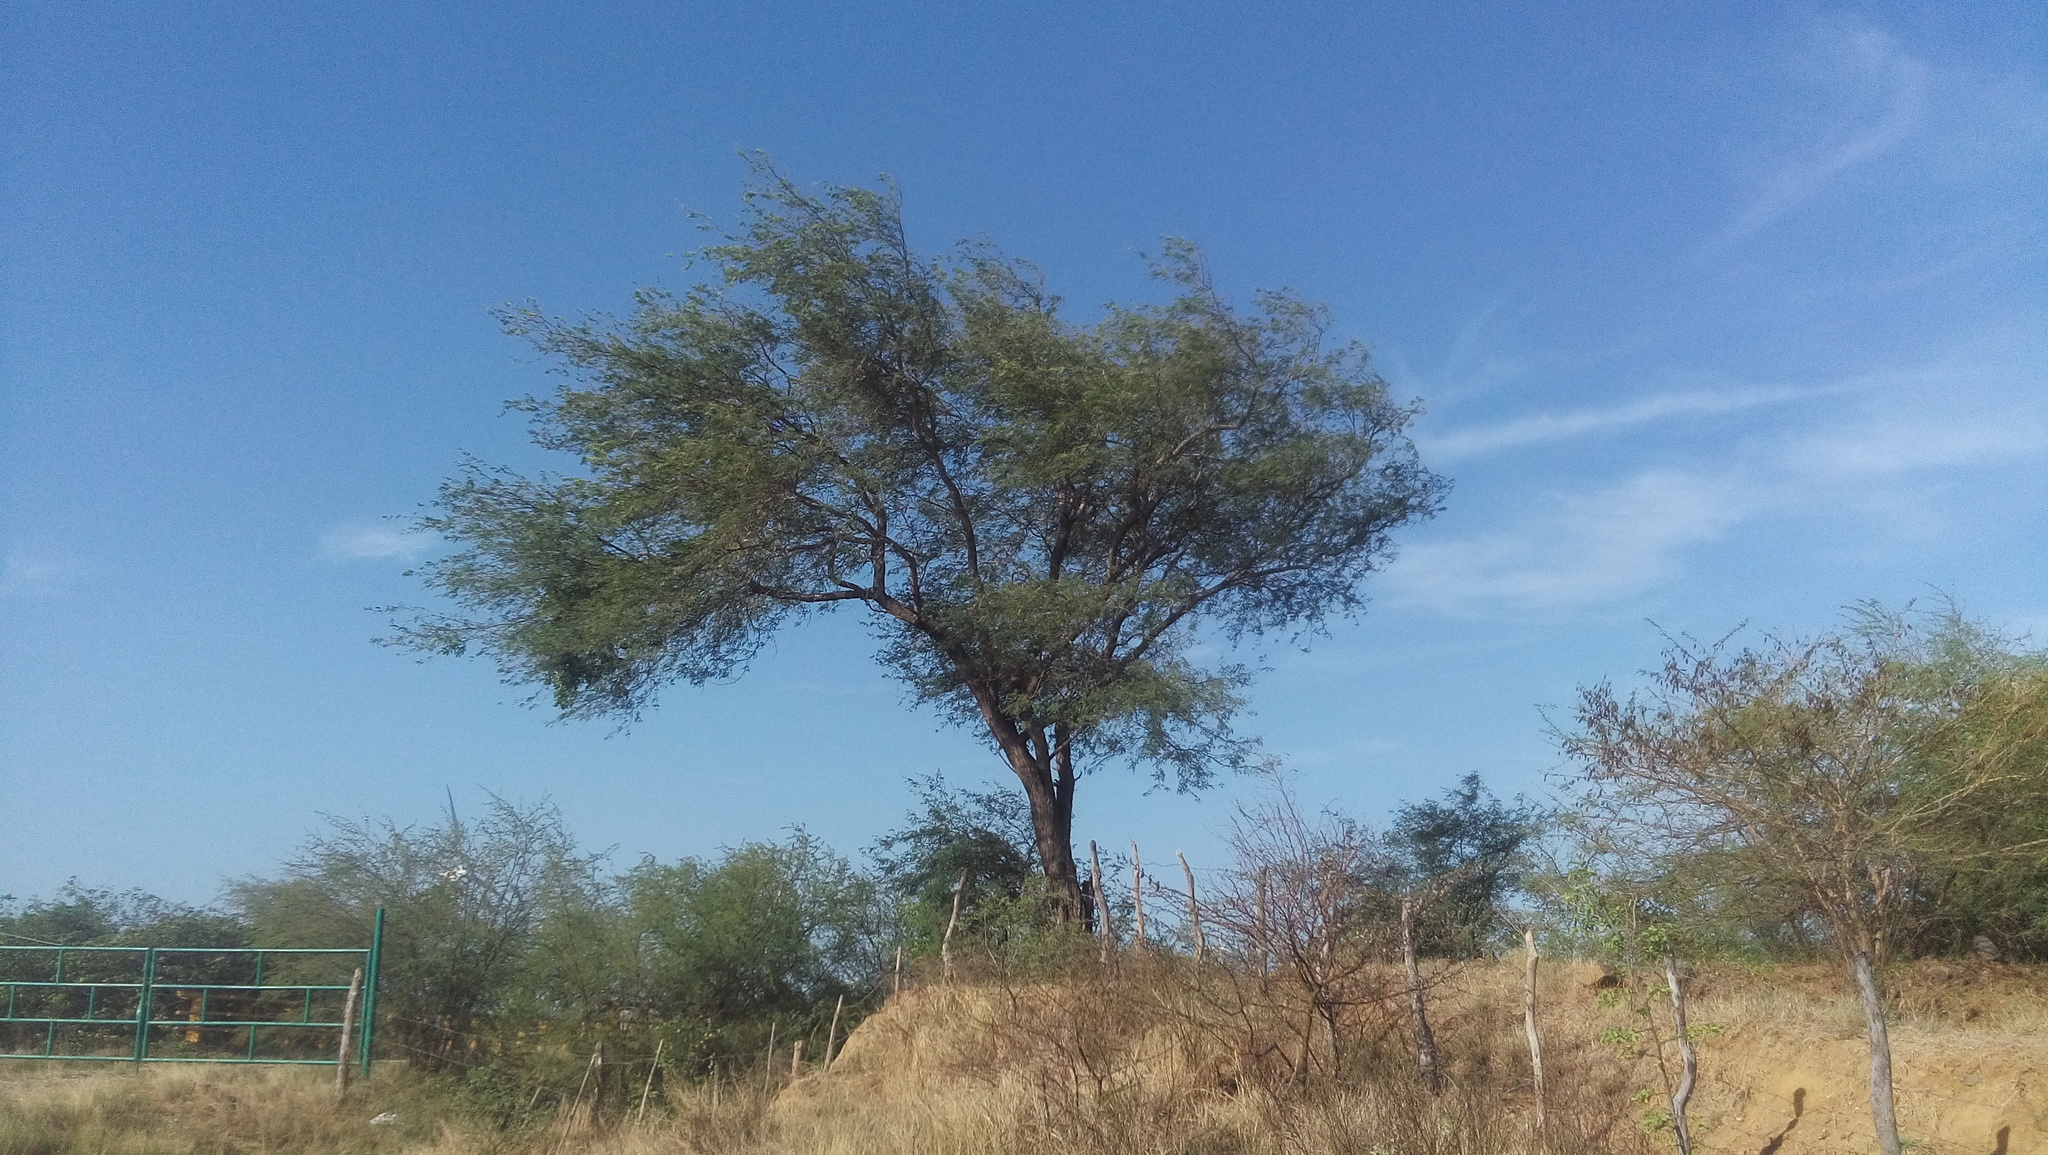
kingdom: Plantae
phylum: Tracheophyta
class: Magnoliopsida
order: Fabales
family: Fabaceae
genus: Prosopis
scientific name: Prosopis laevigata
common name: Smooth mesquite
